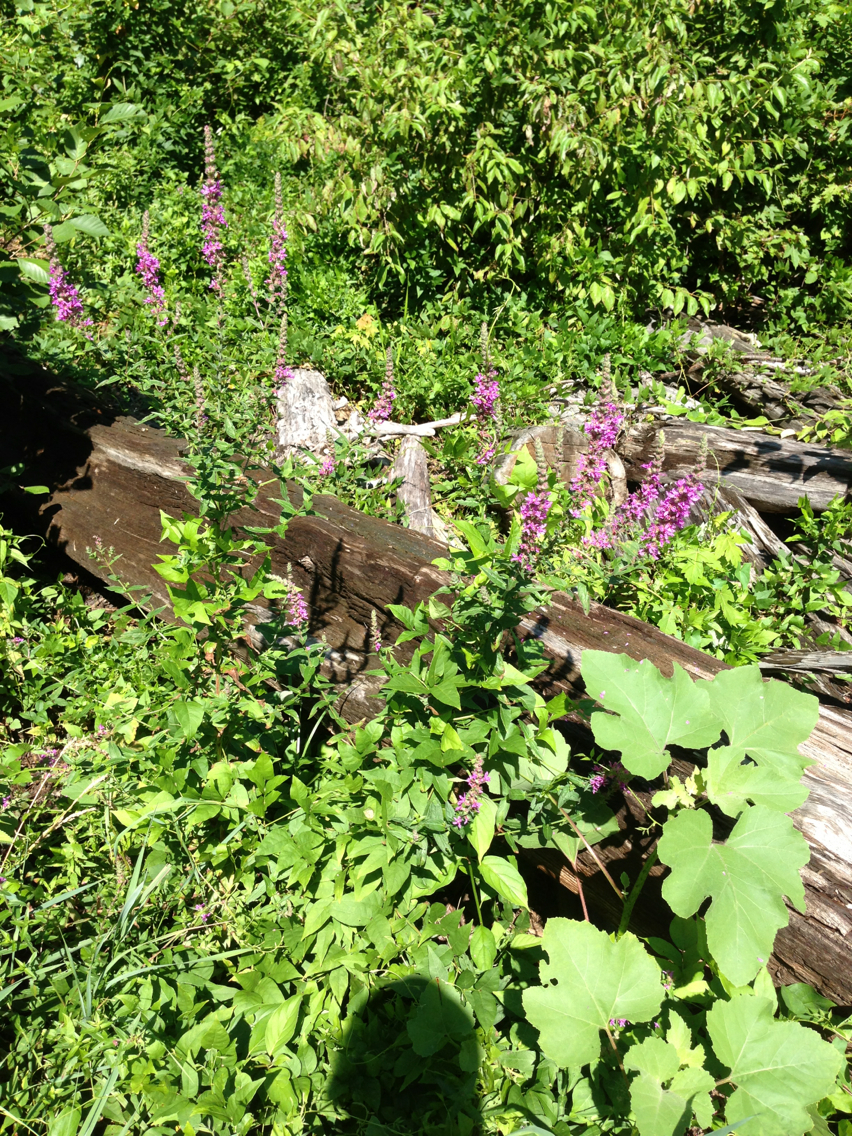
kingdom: Plantae
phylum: Tracheophyta
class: Magnoliopsida
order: Myrtales
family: Lythraceae
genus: Lythrum
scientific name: Lythrum salicaria
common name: Purple loosestrife
